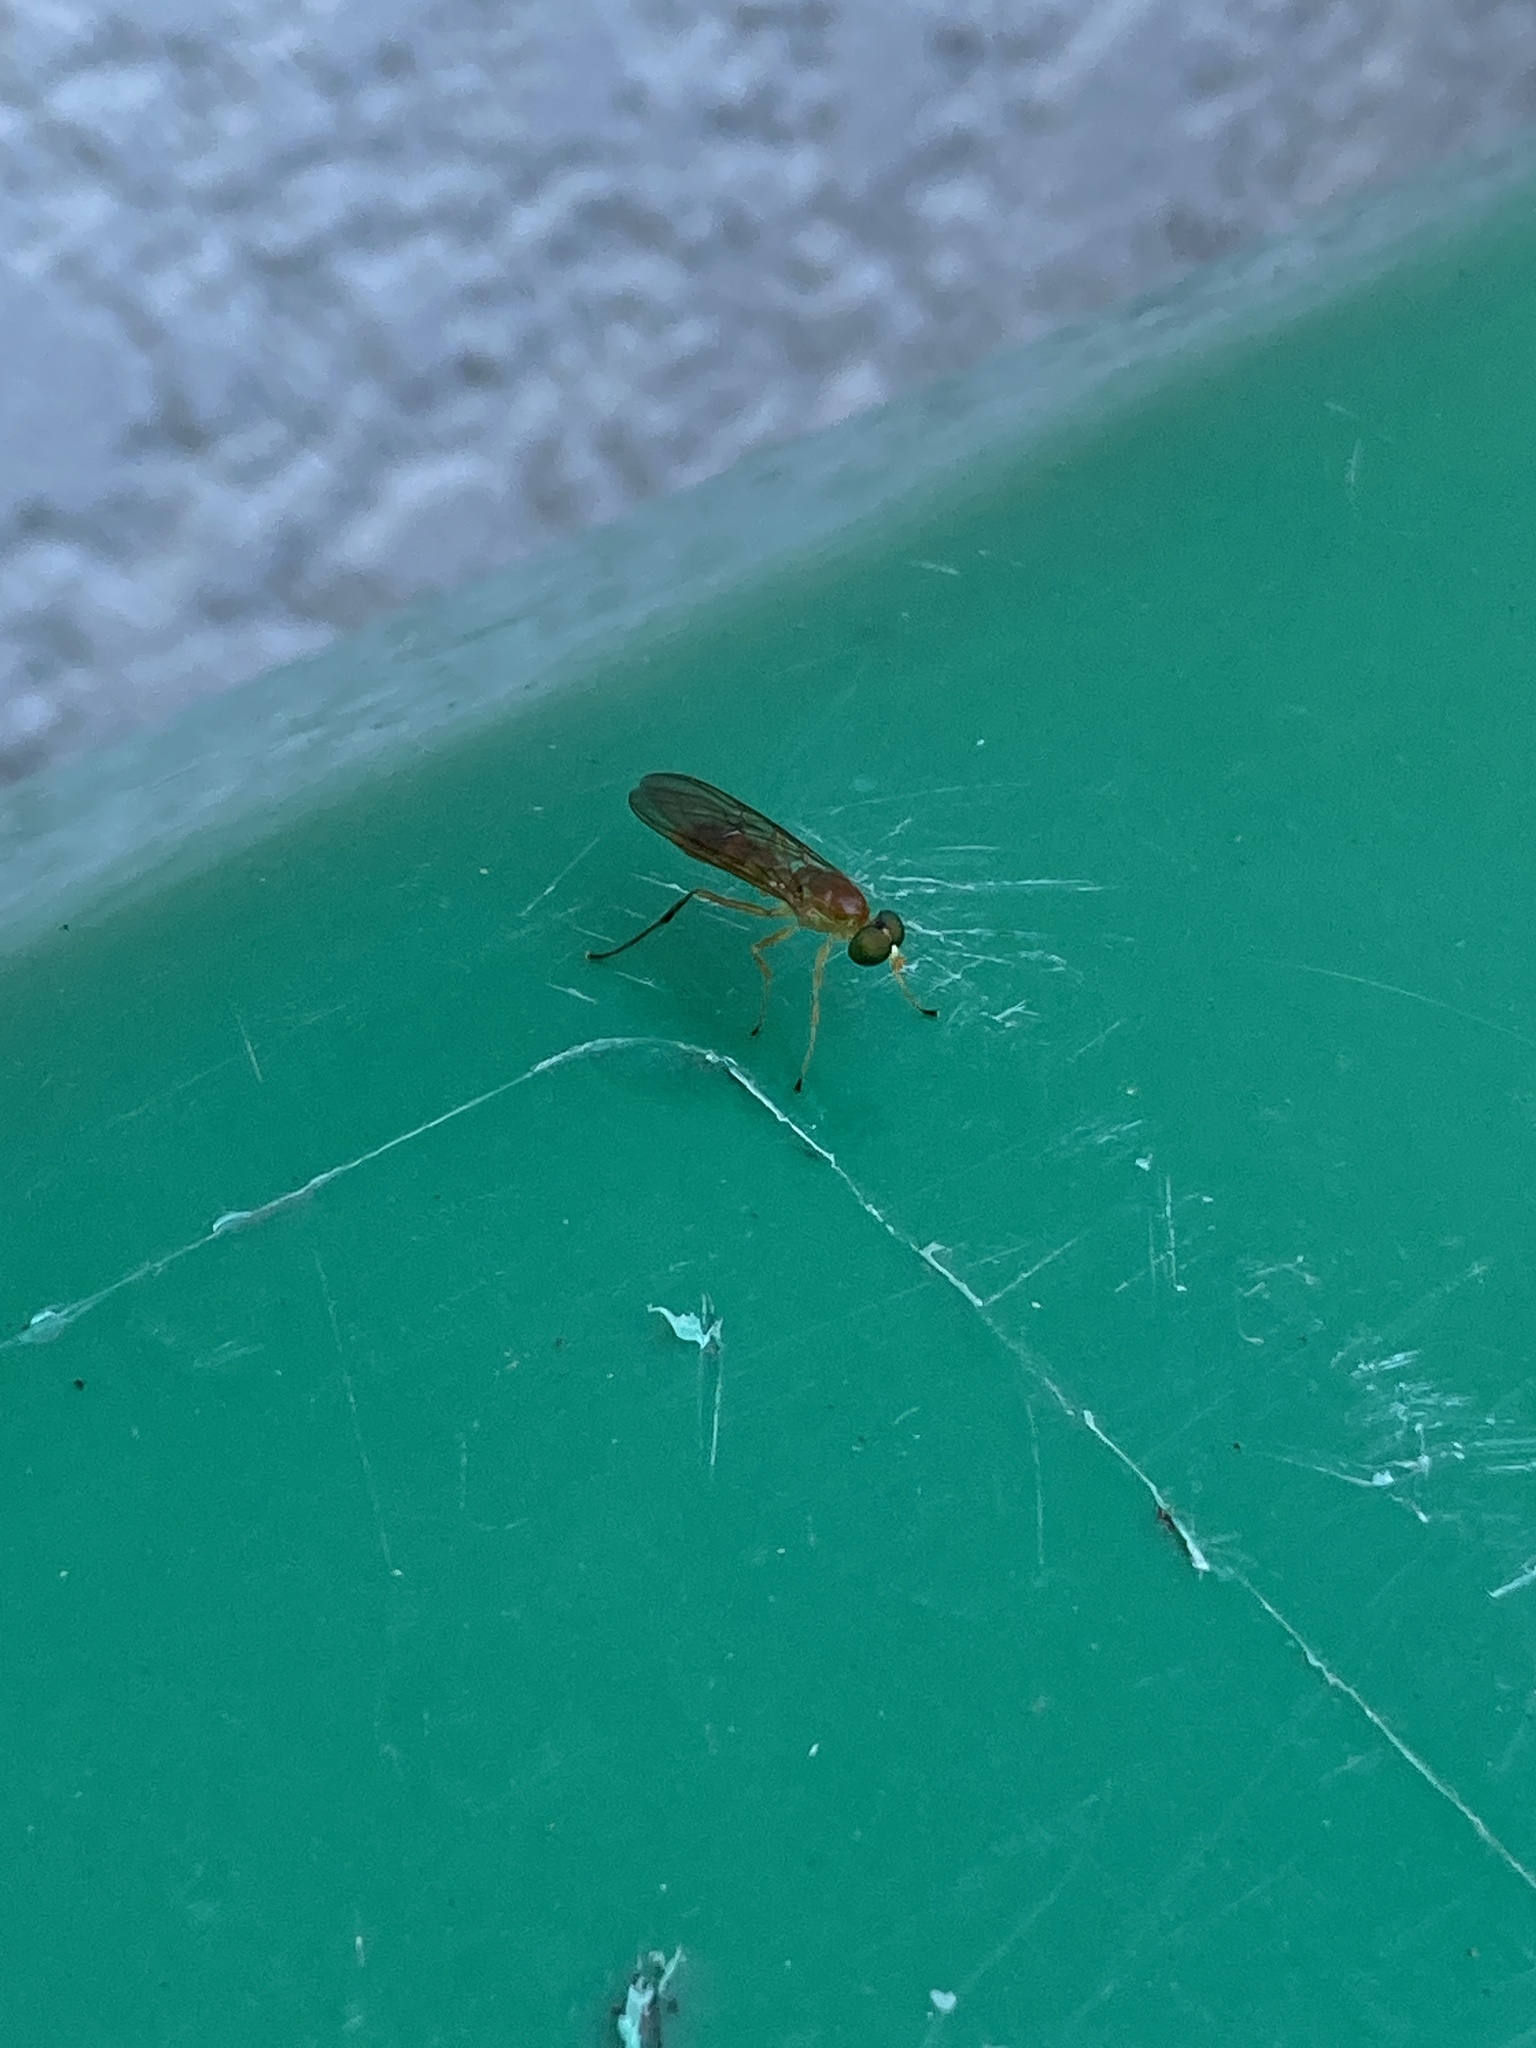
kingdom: Animalia
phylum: Arthropoda
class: Insecta
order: Diptera
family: Stratiomyidae
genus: Ptecticus
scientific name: Ptecticus trivittatus
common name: Compost fly
